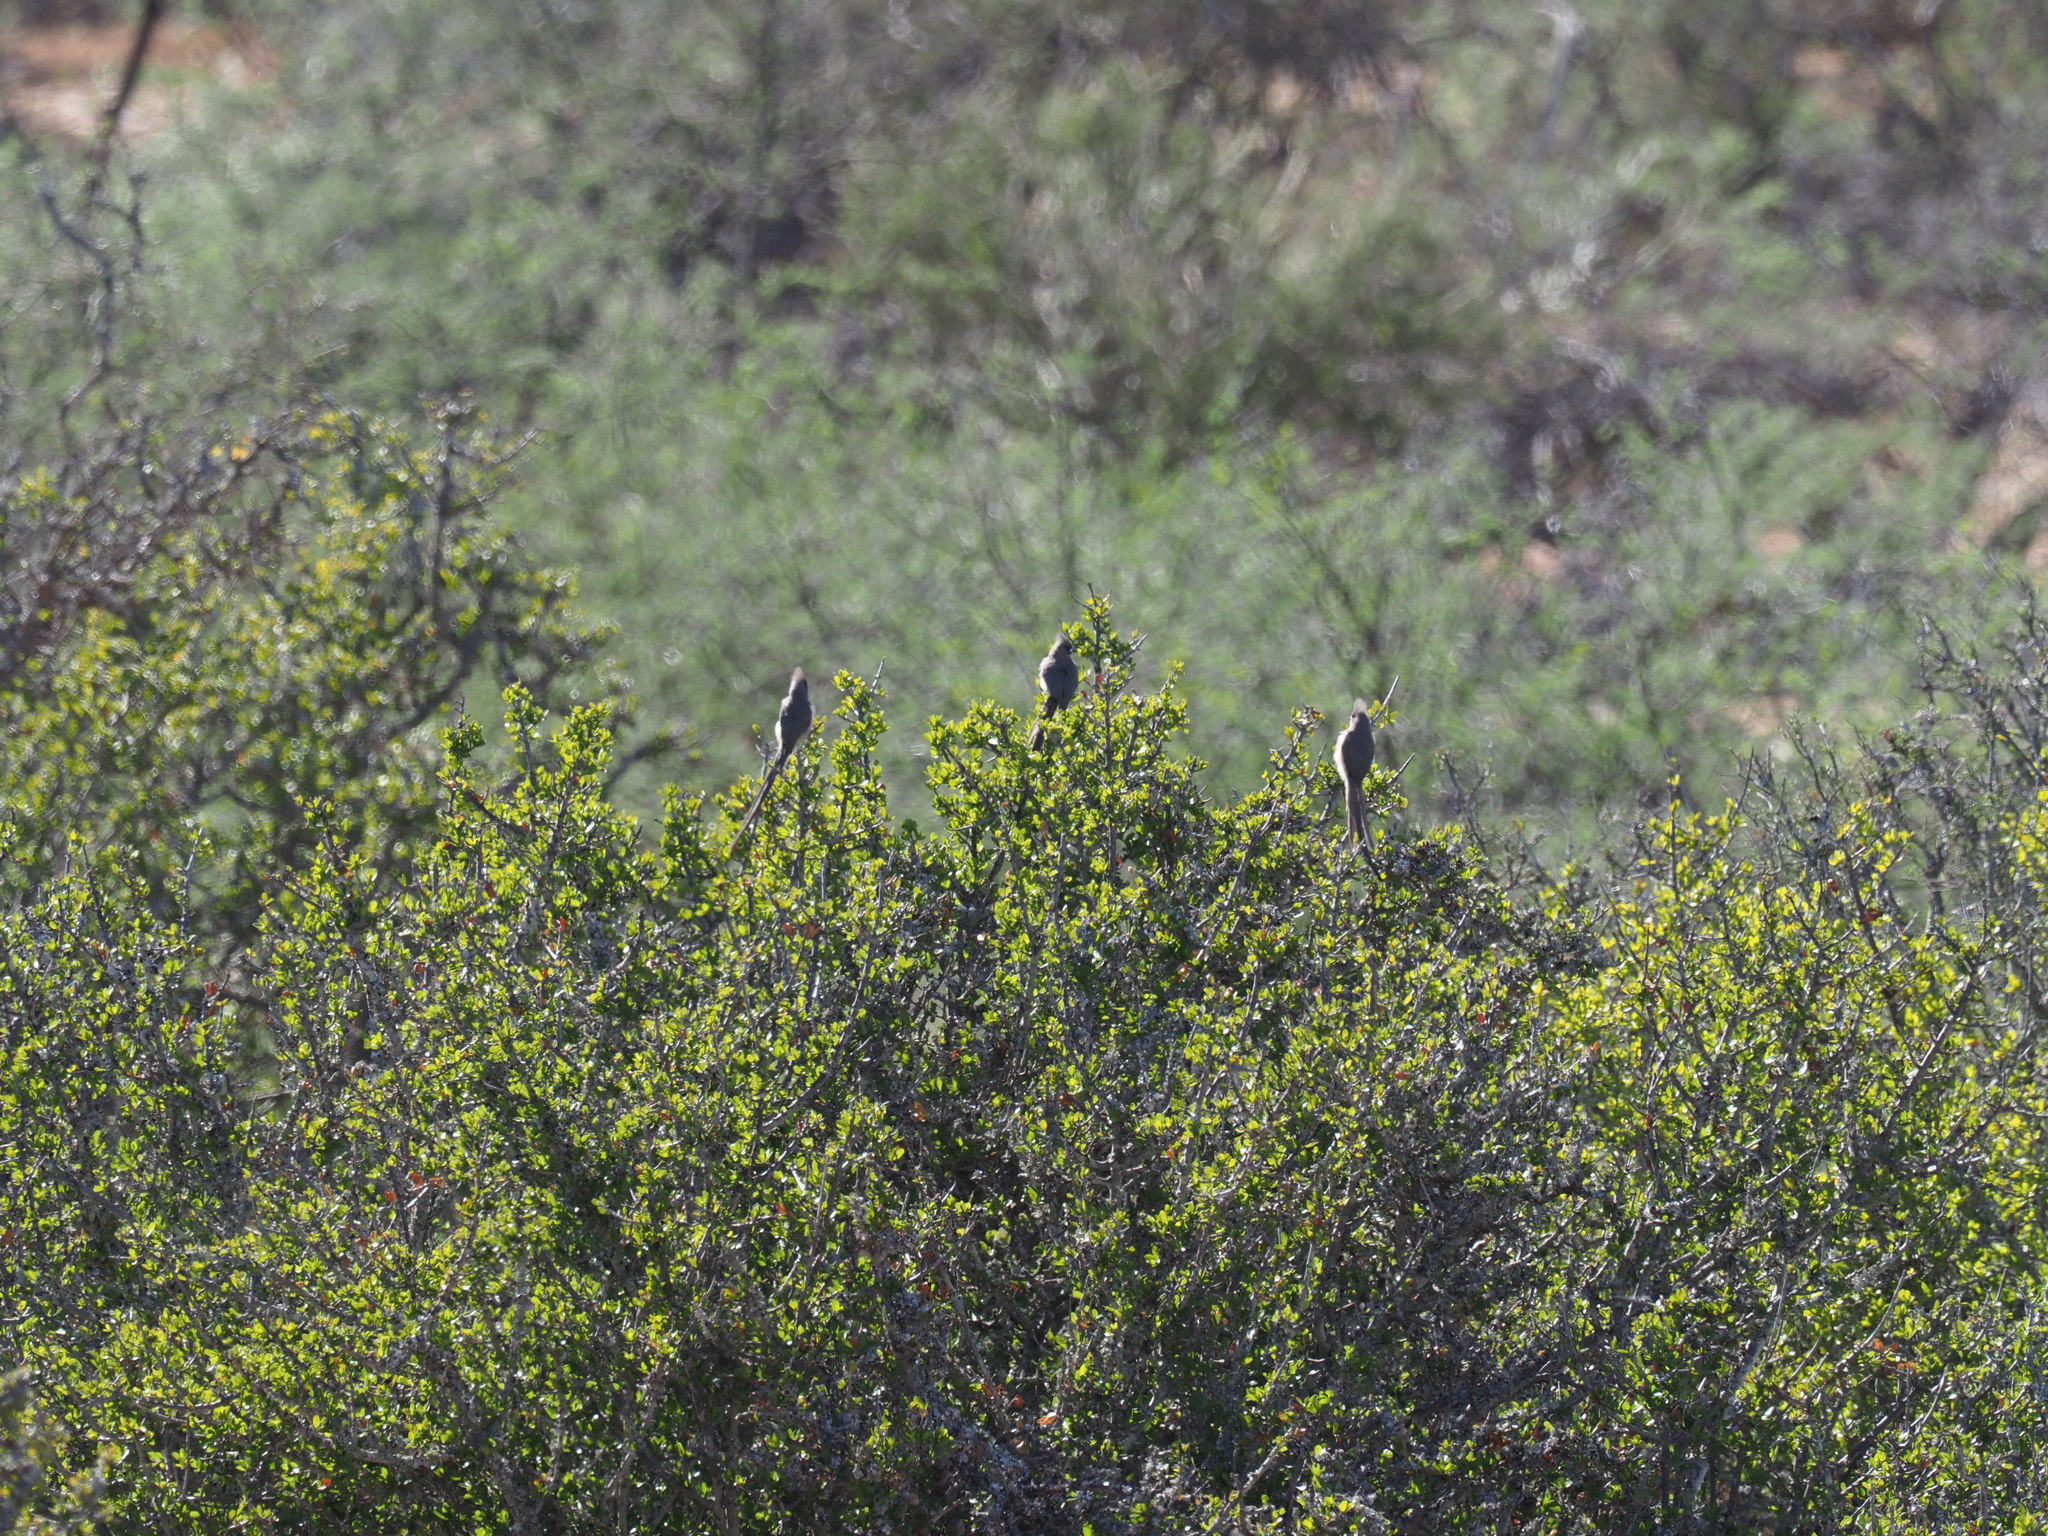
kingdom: Animalia
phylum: Chordata
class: Aves
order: Coliiformes
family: Coliidae
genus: Colius
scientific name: Colius colius
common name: White-backed mousebird
